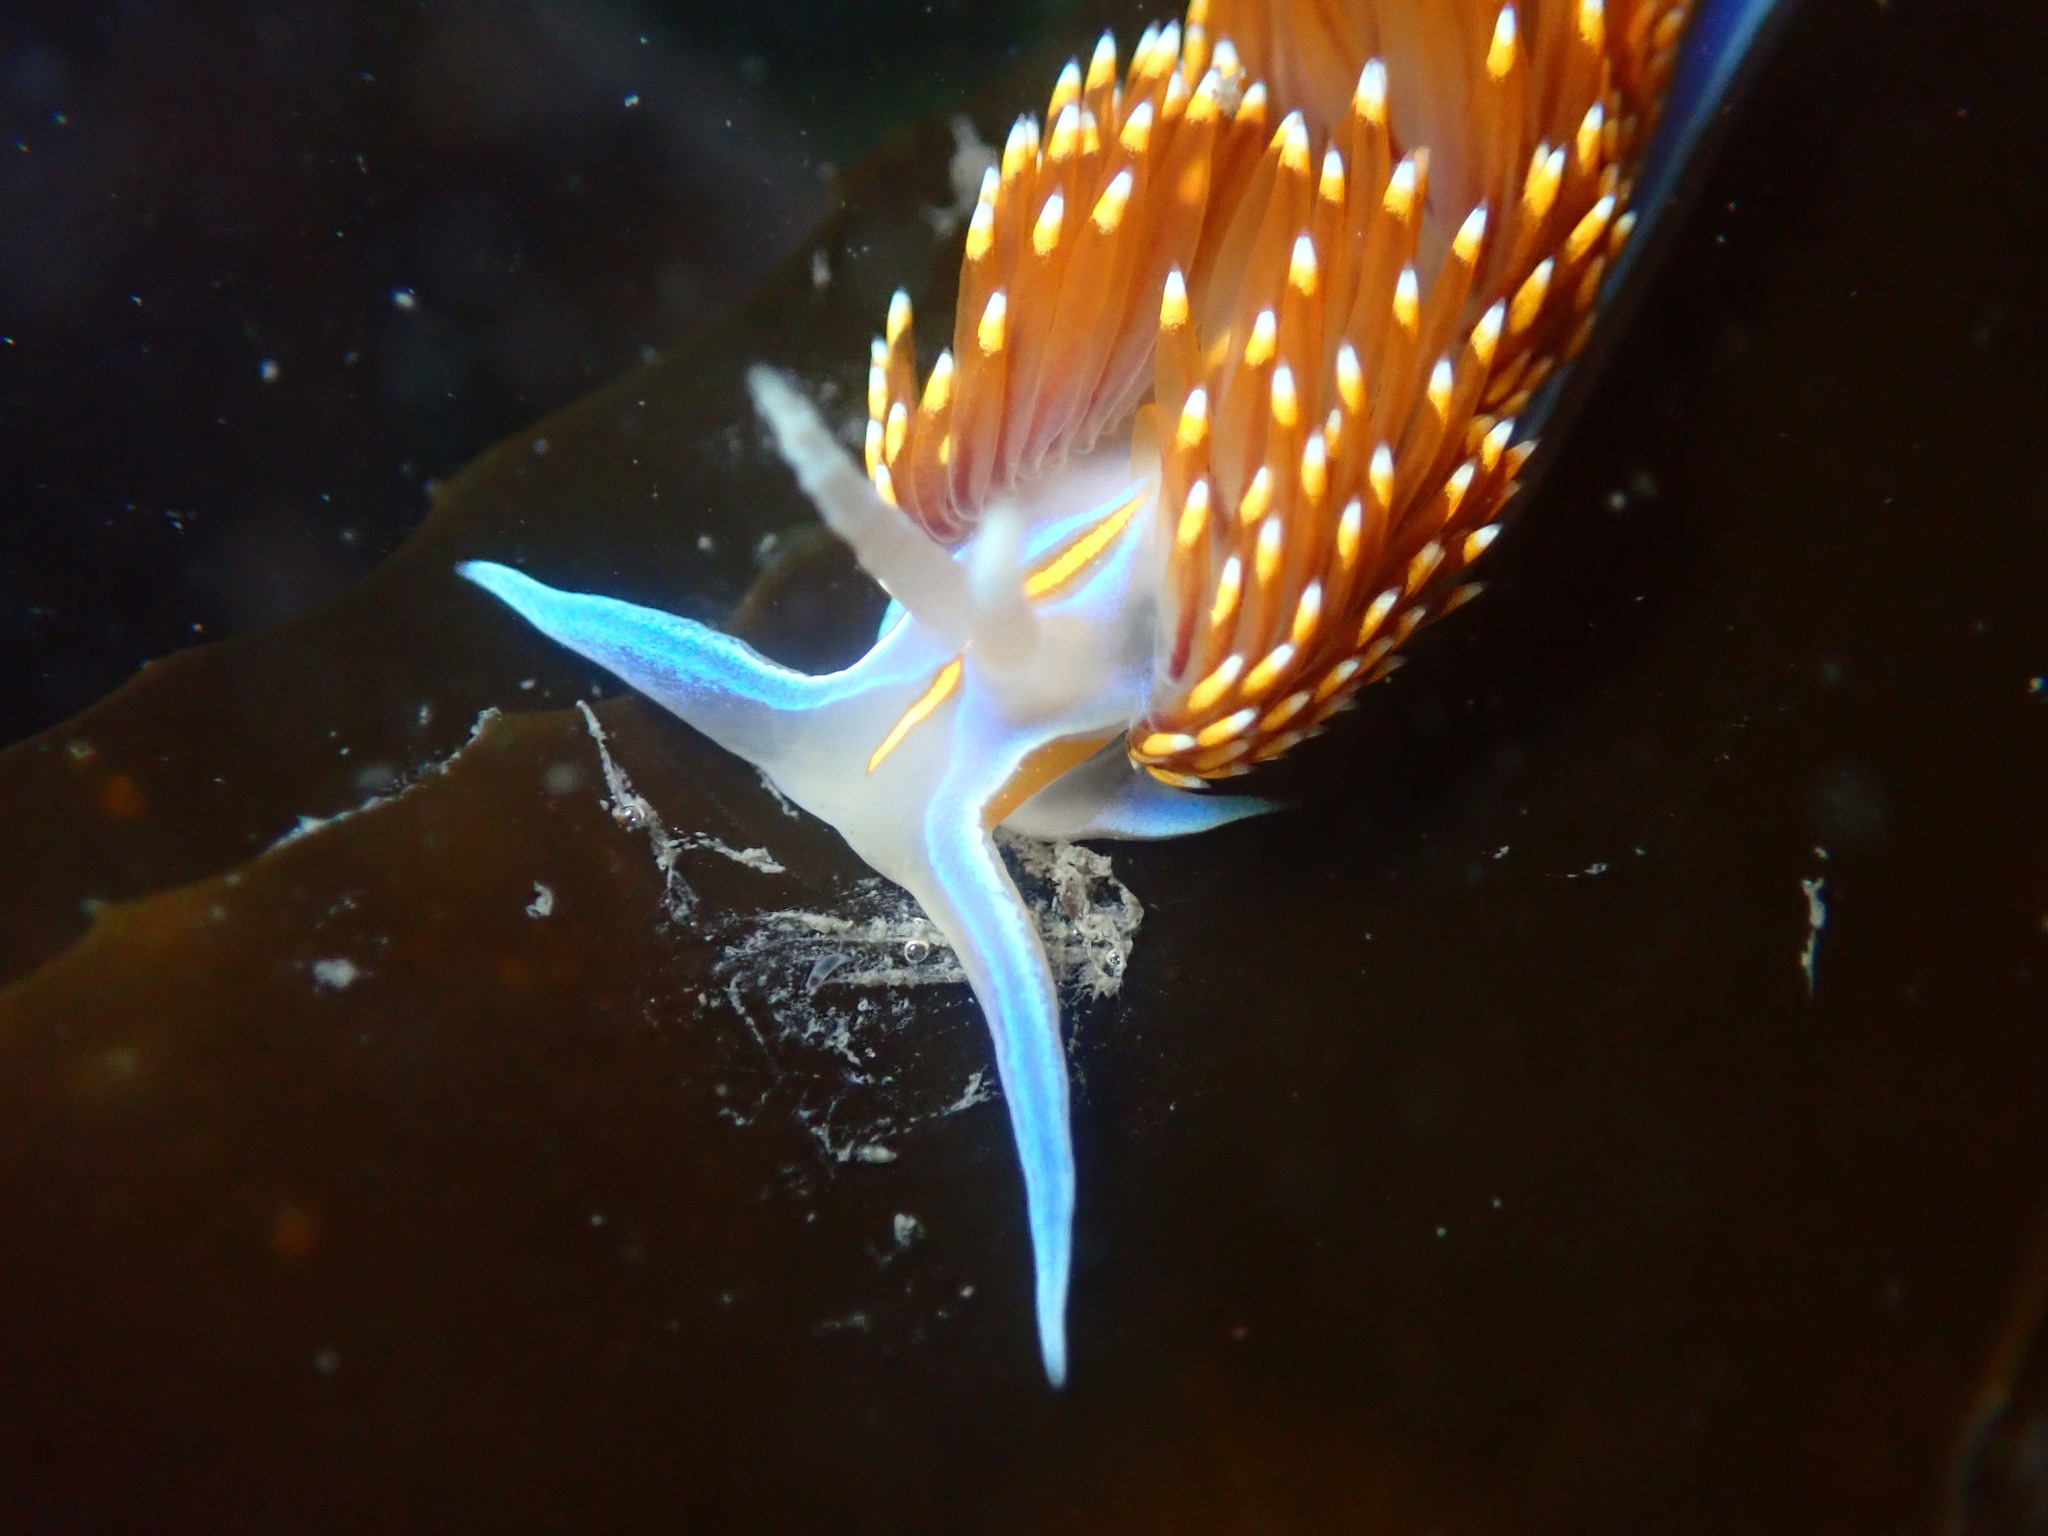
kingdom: Animalia
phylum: Mollusca
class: Gastropoda
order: Nudibranchia
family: Myrrhinidae
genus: Hermissenda
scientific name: Hermissenda opalescens
